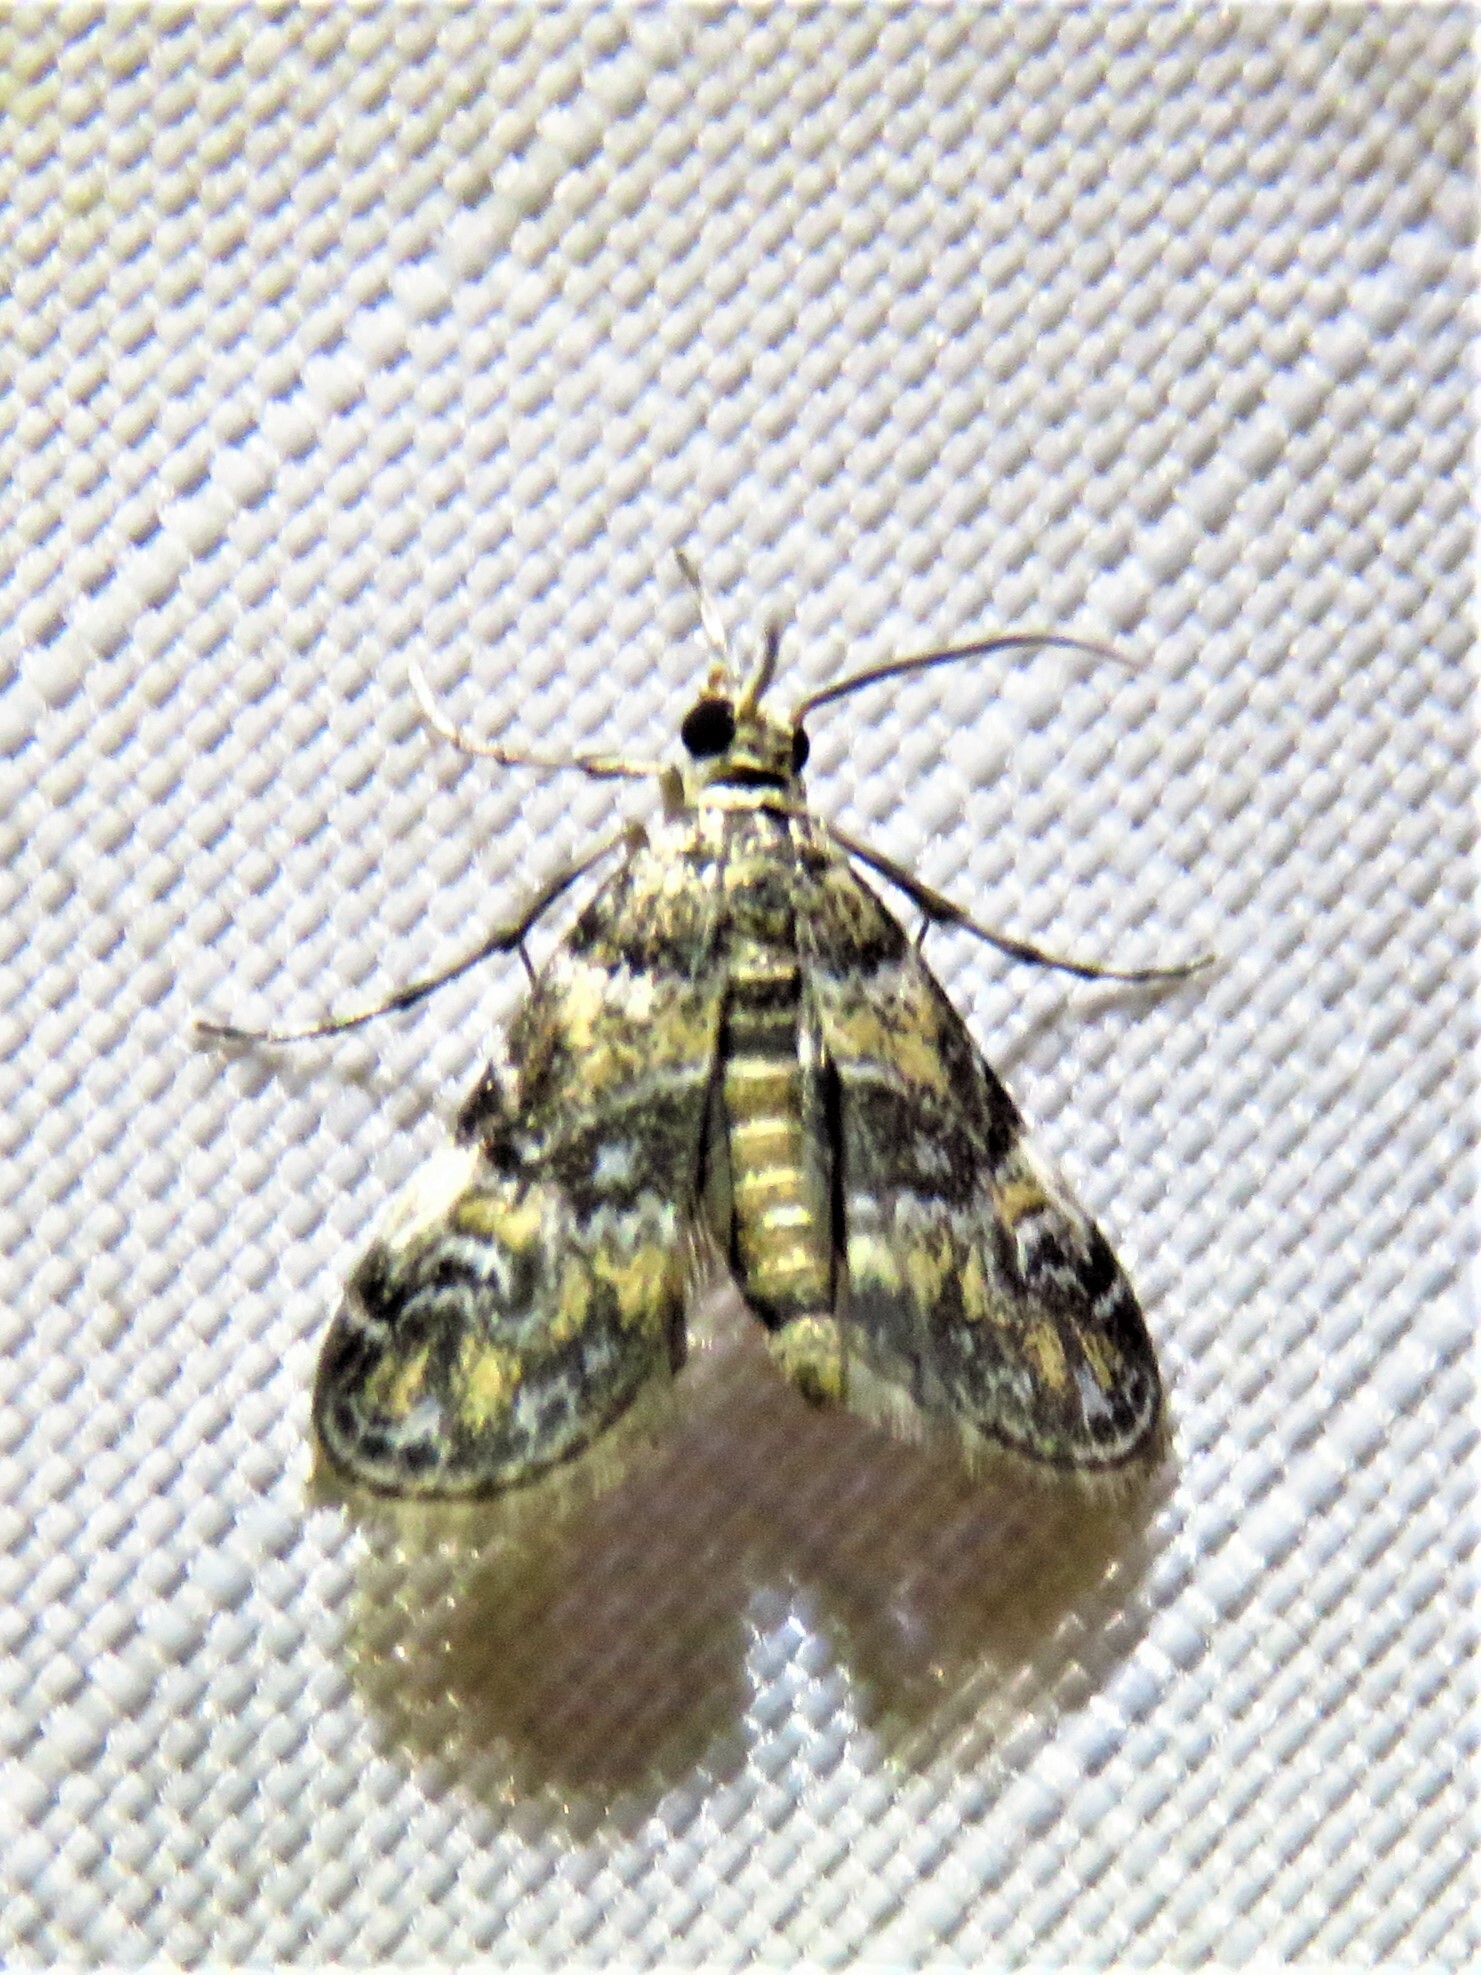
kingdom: Animalia
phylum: Arthropoda
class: Insecta
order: Lepidoptera
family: Crambidae
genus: Elophila
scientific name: Elophila obliteralis
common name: Waterlily leafcutter moth
